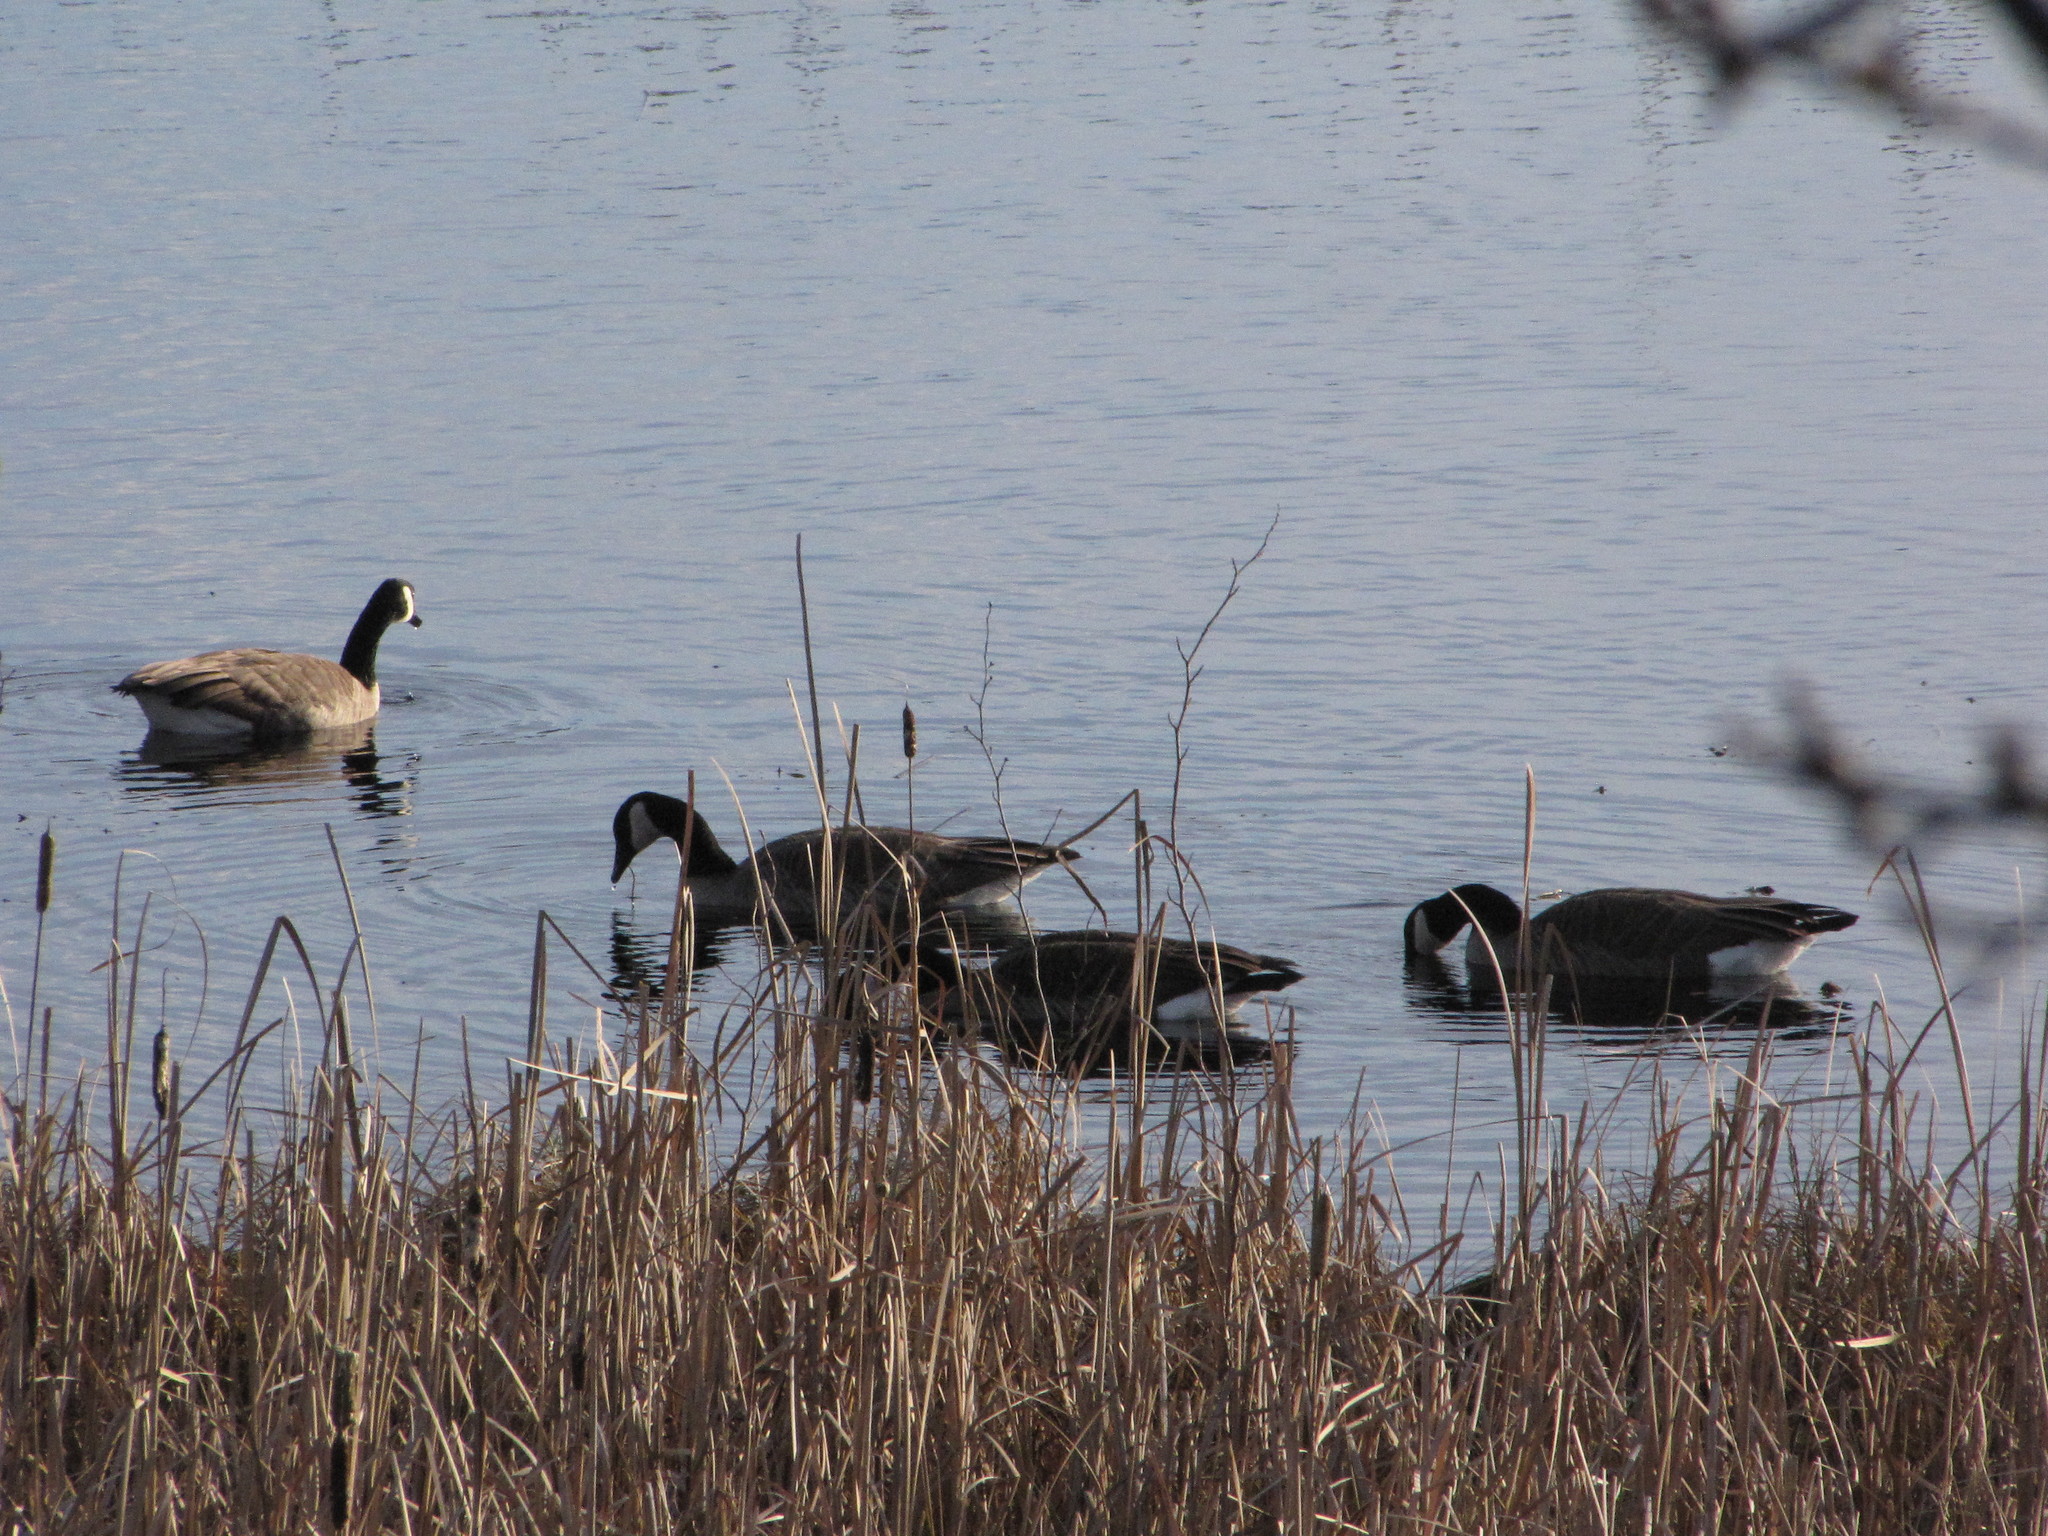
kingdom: Animalia
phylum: Chordata
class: Aves
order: Anseriformes
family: Anatidae
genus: Branta
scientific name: Branta canadensis
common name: Canada goose
